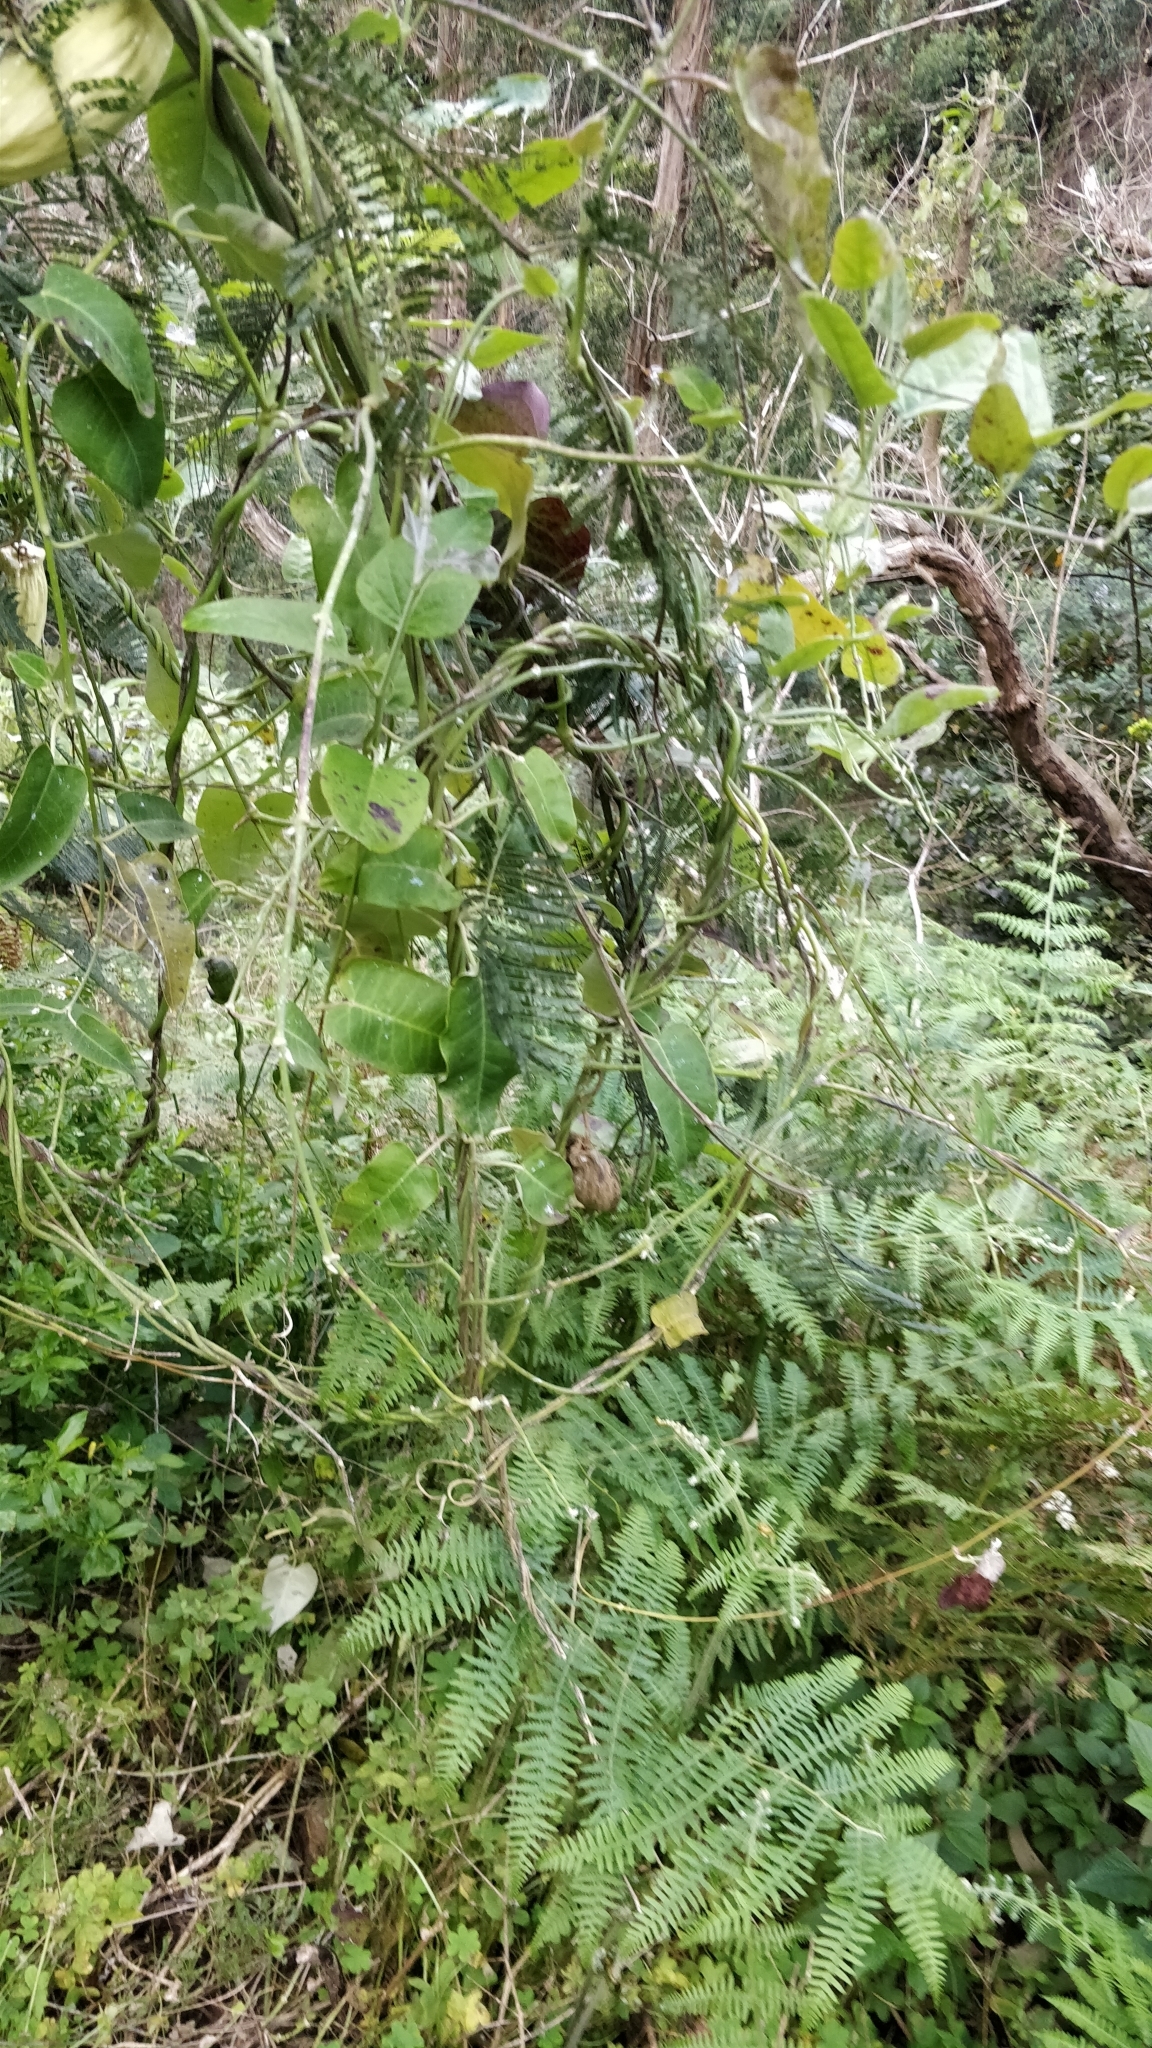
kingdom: Plantae
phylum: Tracheophyta
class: Magnoliopsida
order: Gentianales
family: Apocynaceae
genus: Araujia
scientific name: Araujia sericifera
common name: White bladderflower
